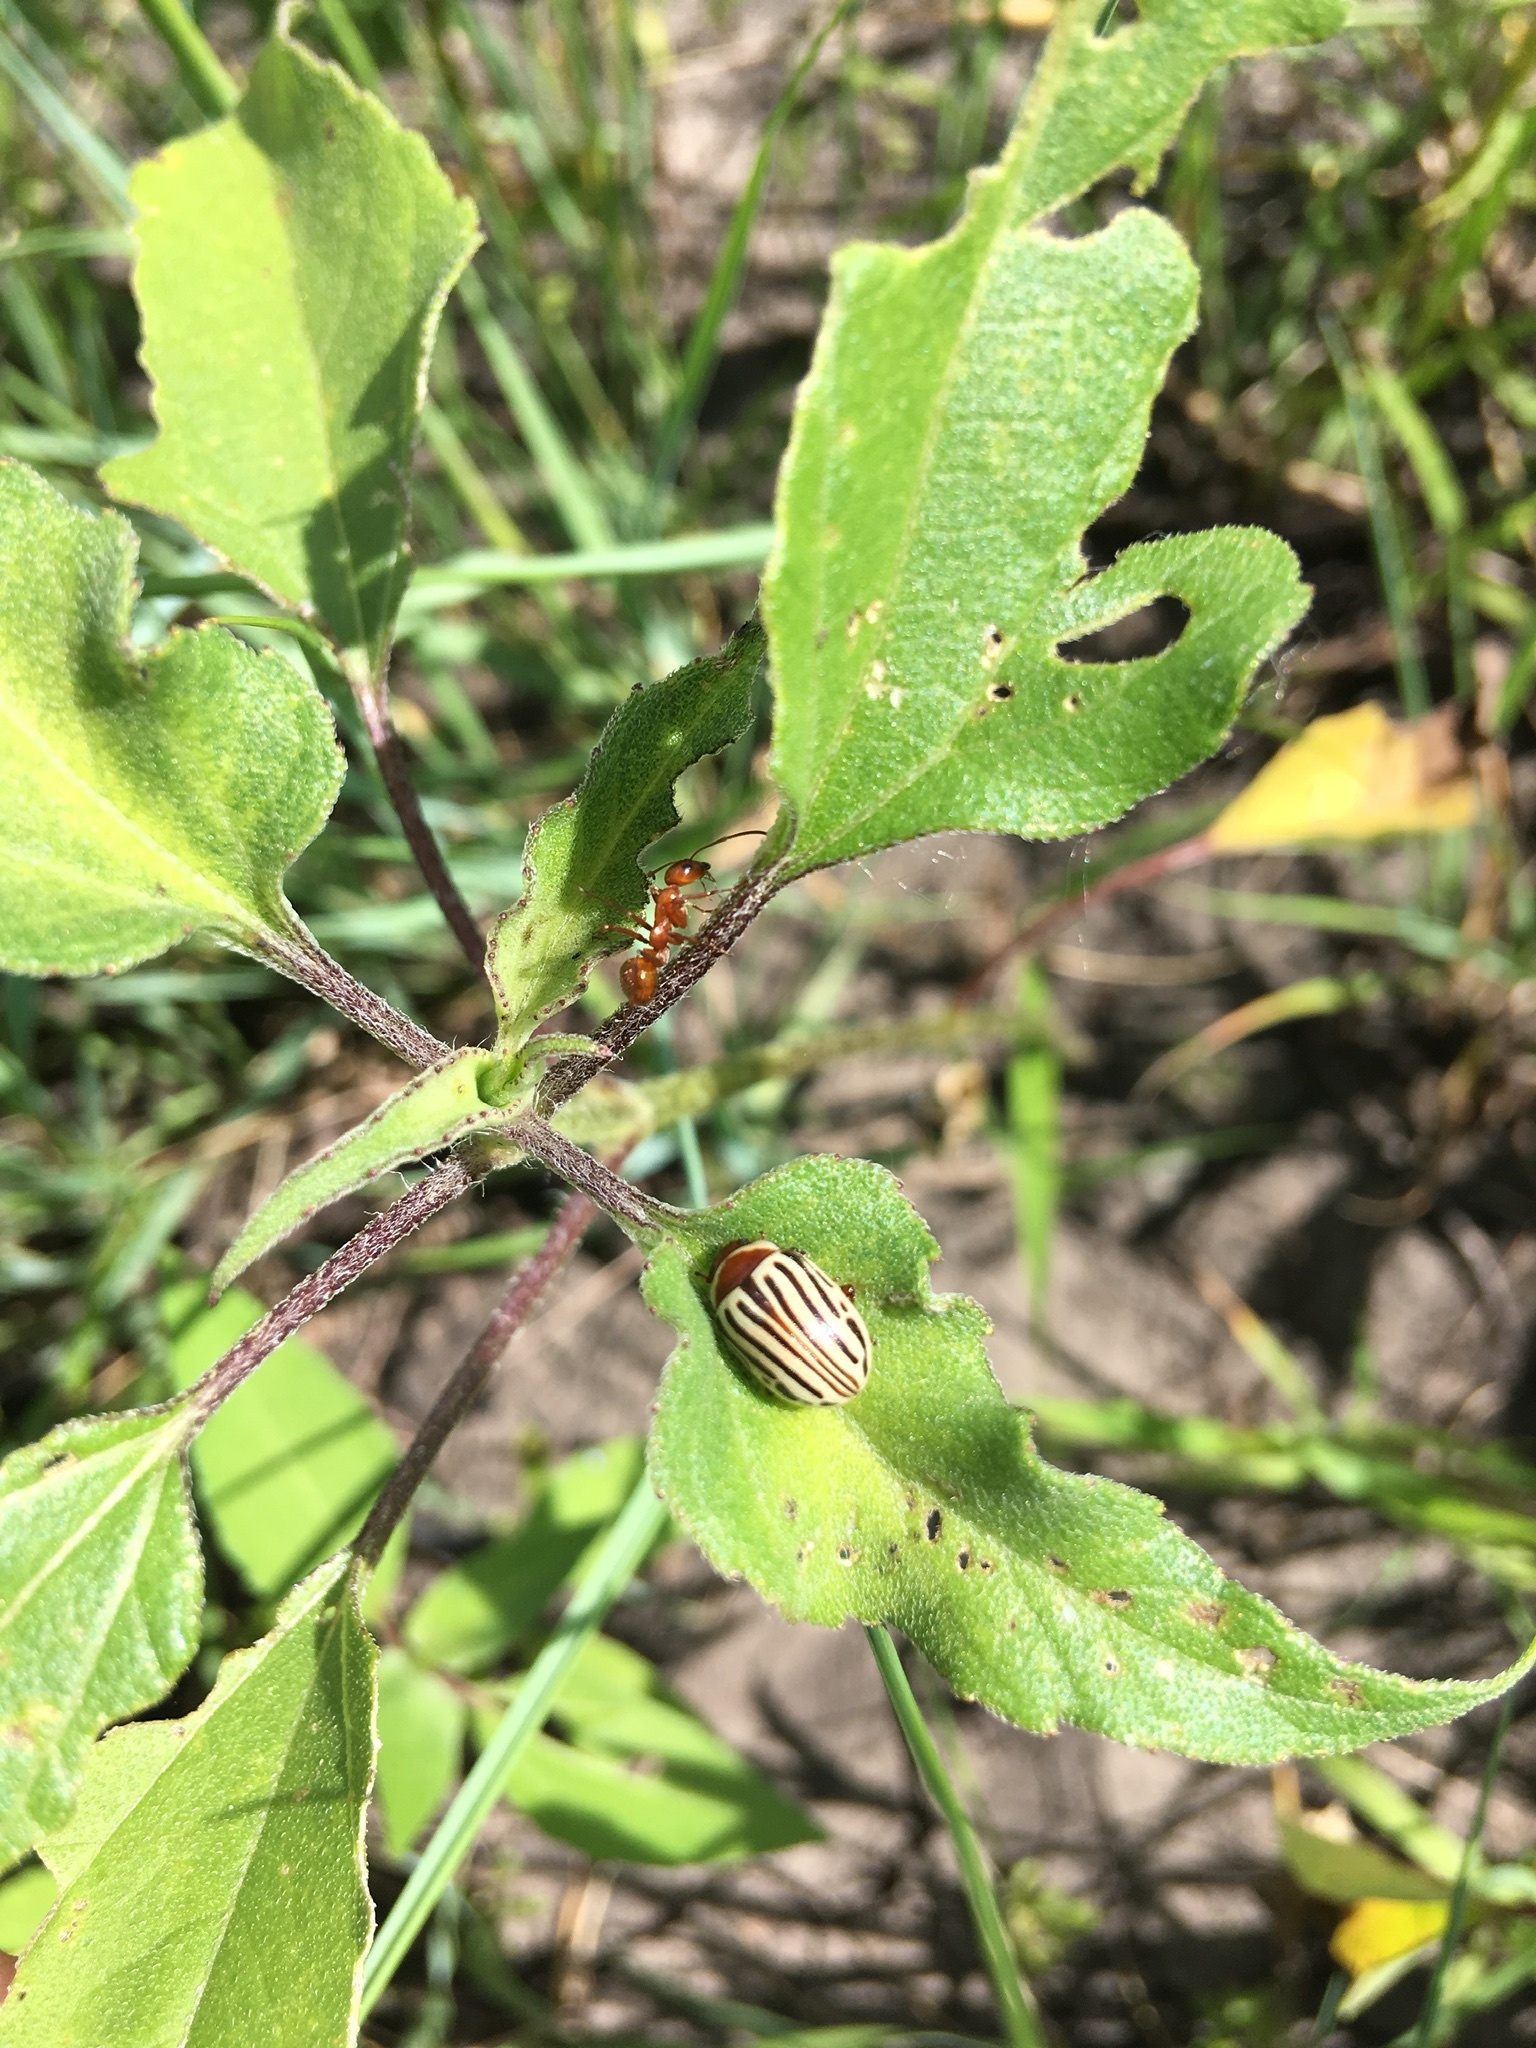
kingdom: Animalia
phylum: Arthropoda
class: Insecta
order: Coleoptera
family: Chrysomelidae
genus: Calligrapha
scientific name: Calligrapha
